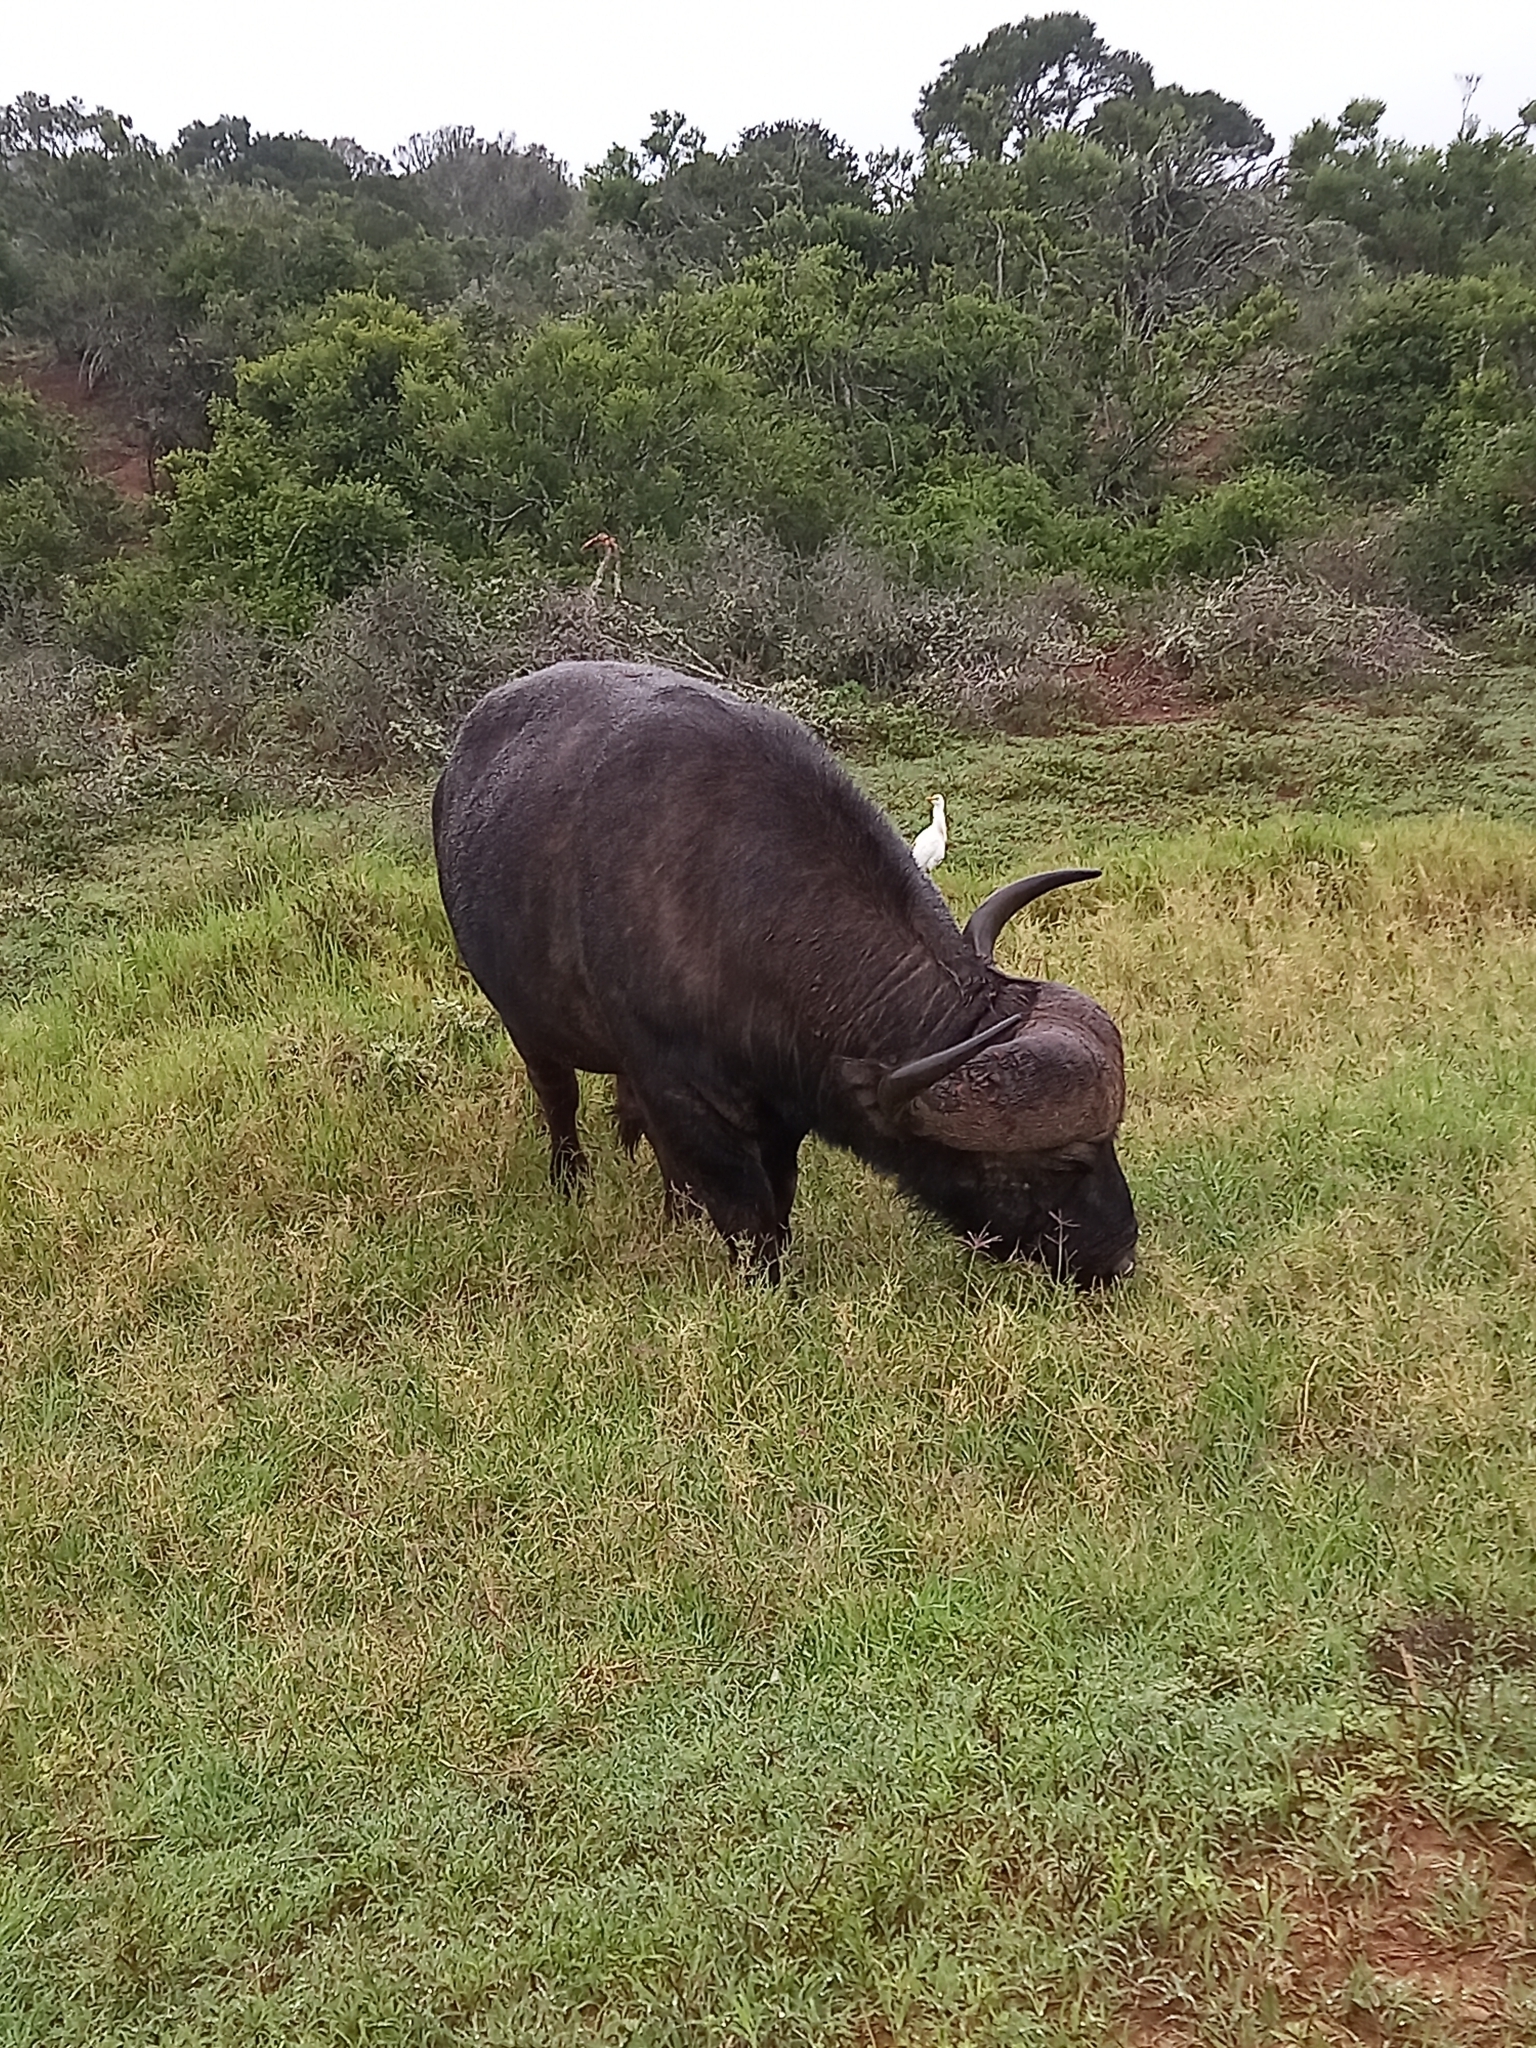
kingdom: Animalia
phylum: Chordata
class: Mammalia
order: Artiodactyla
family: Bovidae
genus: Syncerus
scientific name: Syncerus caffer
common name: African buffalo
